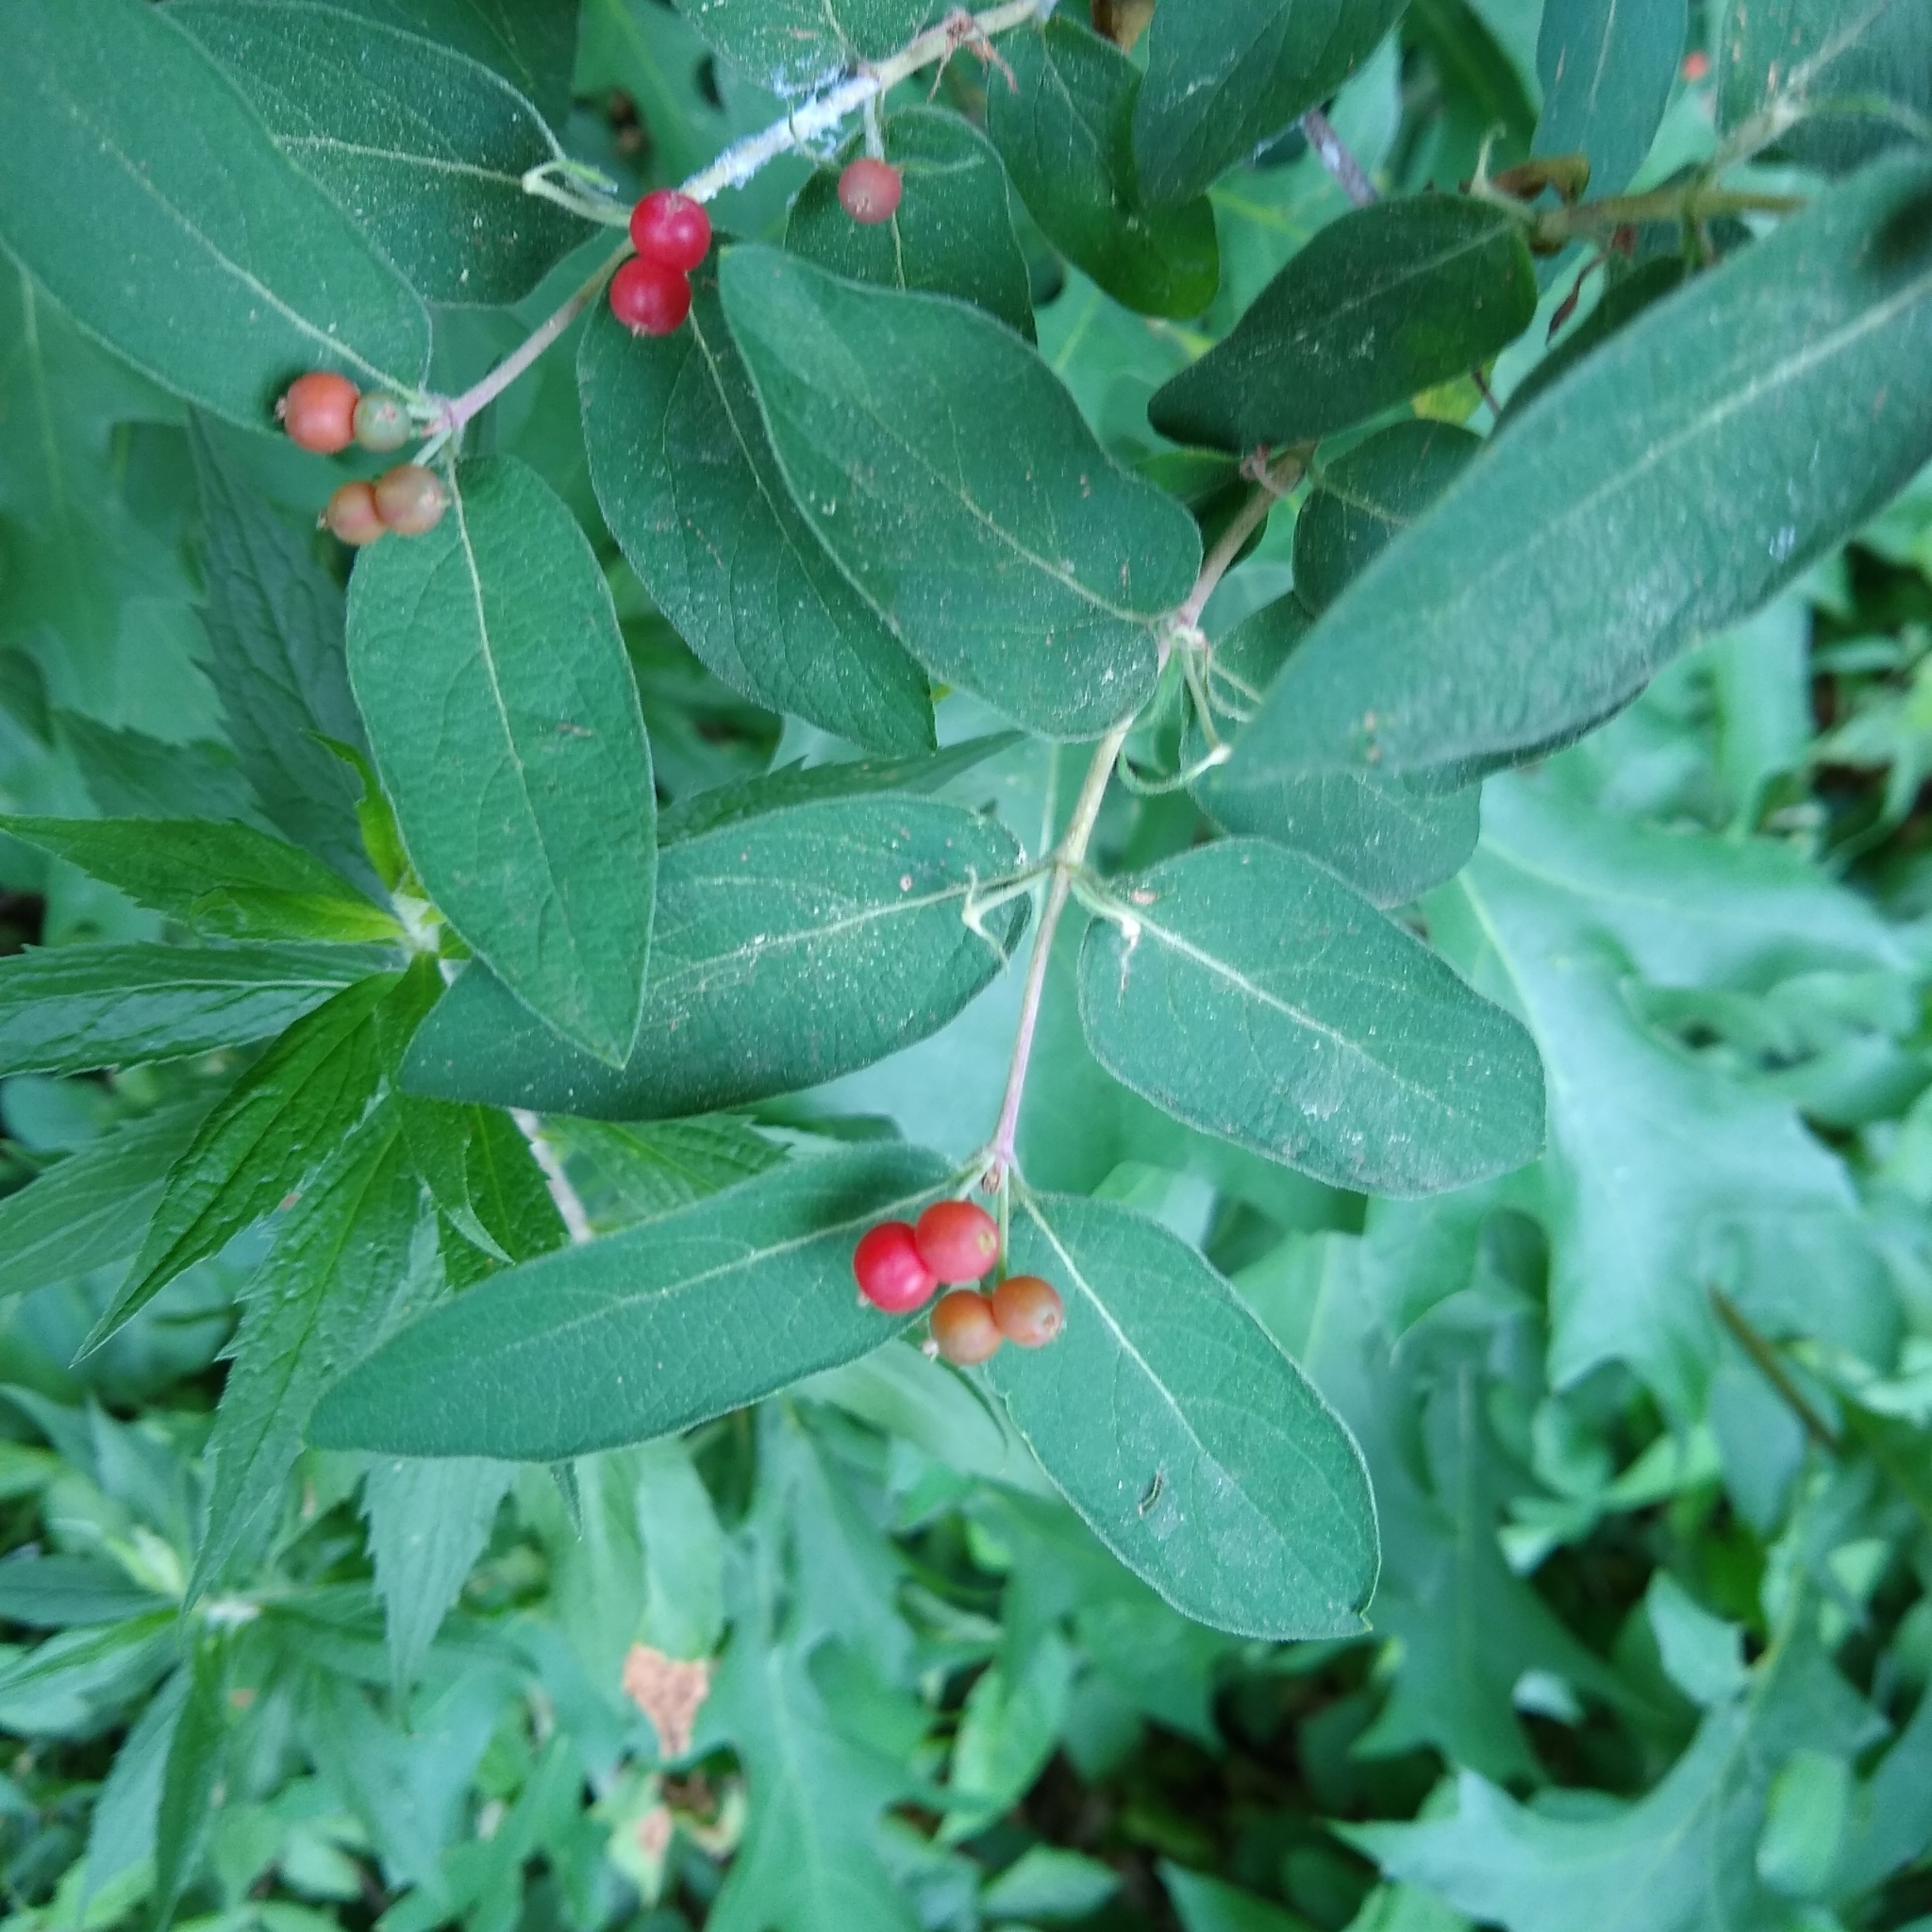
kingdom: Plantae
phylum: Tracheophyta
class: Magnoliopsida
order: Dipsacales
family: Caprifoliaceae
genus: Lonicera
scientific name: Lonicera
